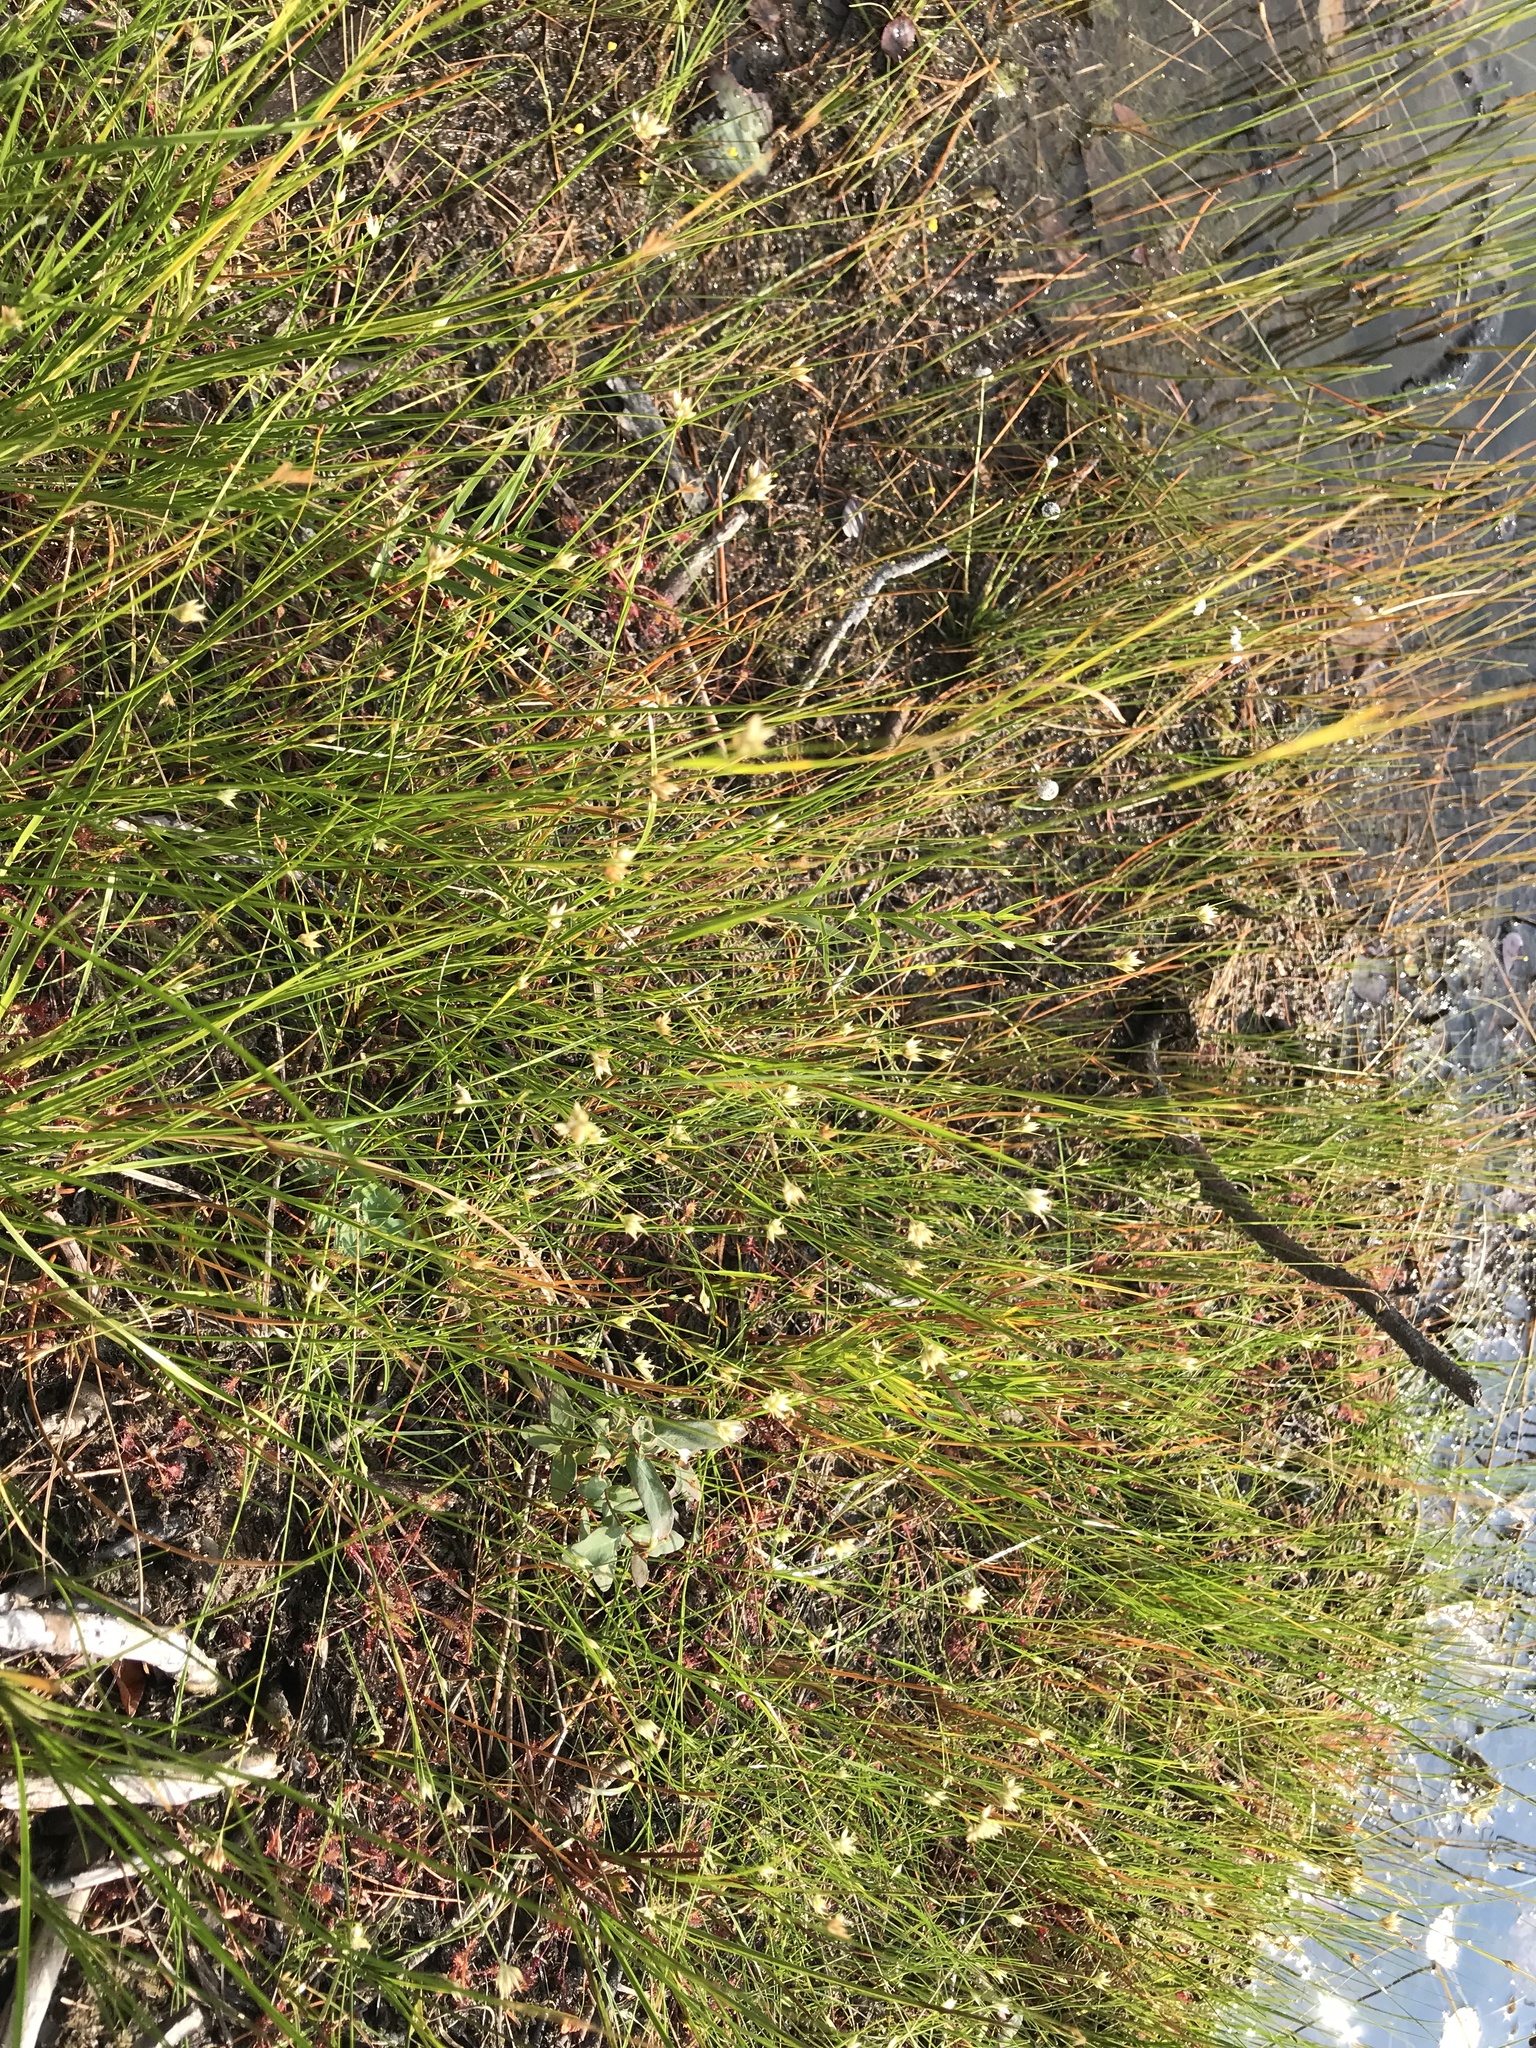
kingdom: Plantae
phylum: Tracheophyta
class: Liliopsida
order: Poales
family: Cyperaceae
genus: Rhynchospora
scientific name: Rhynchospora alba
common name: White beak-sedge
